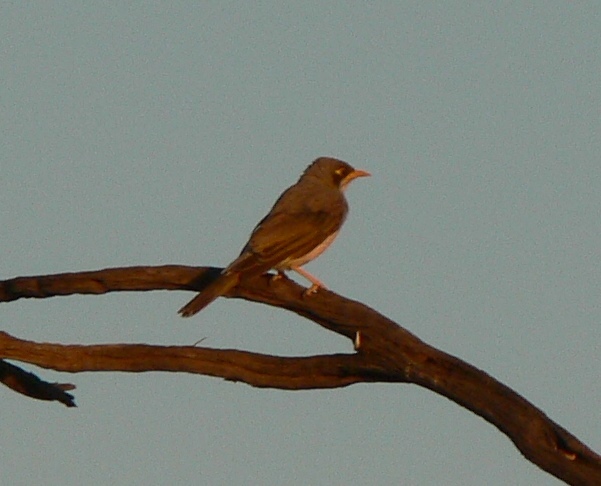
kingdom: Animalia
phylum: Chordata
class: Aves
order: Passeriformes
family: Meliphagidae
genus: Manorina
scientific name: Manorina flavigula
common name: Yellow-throated miner
